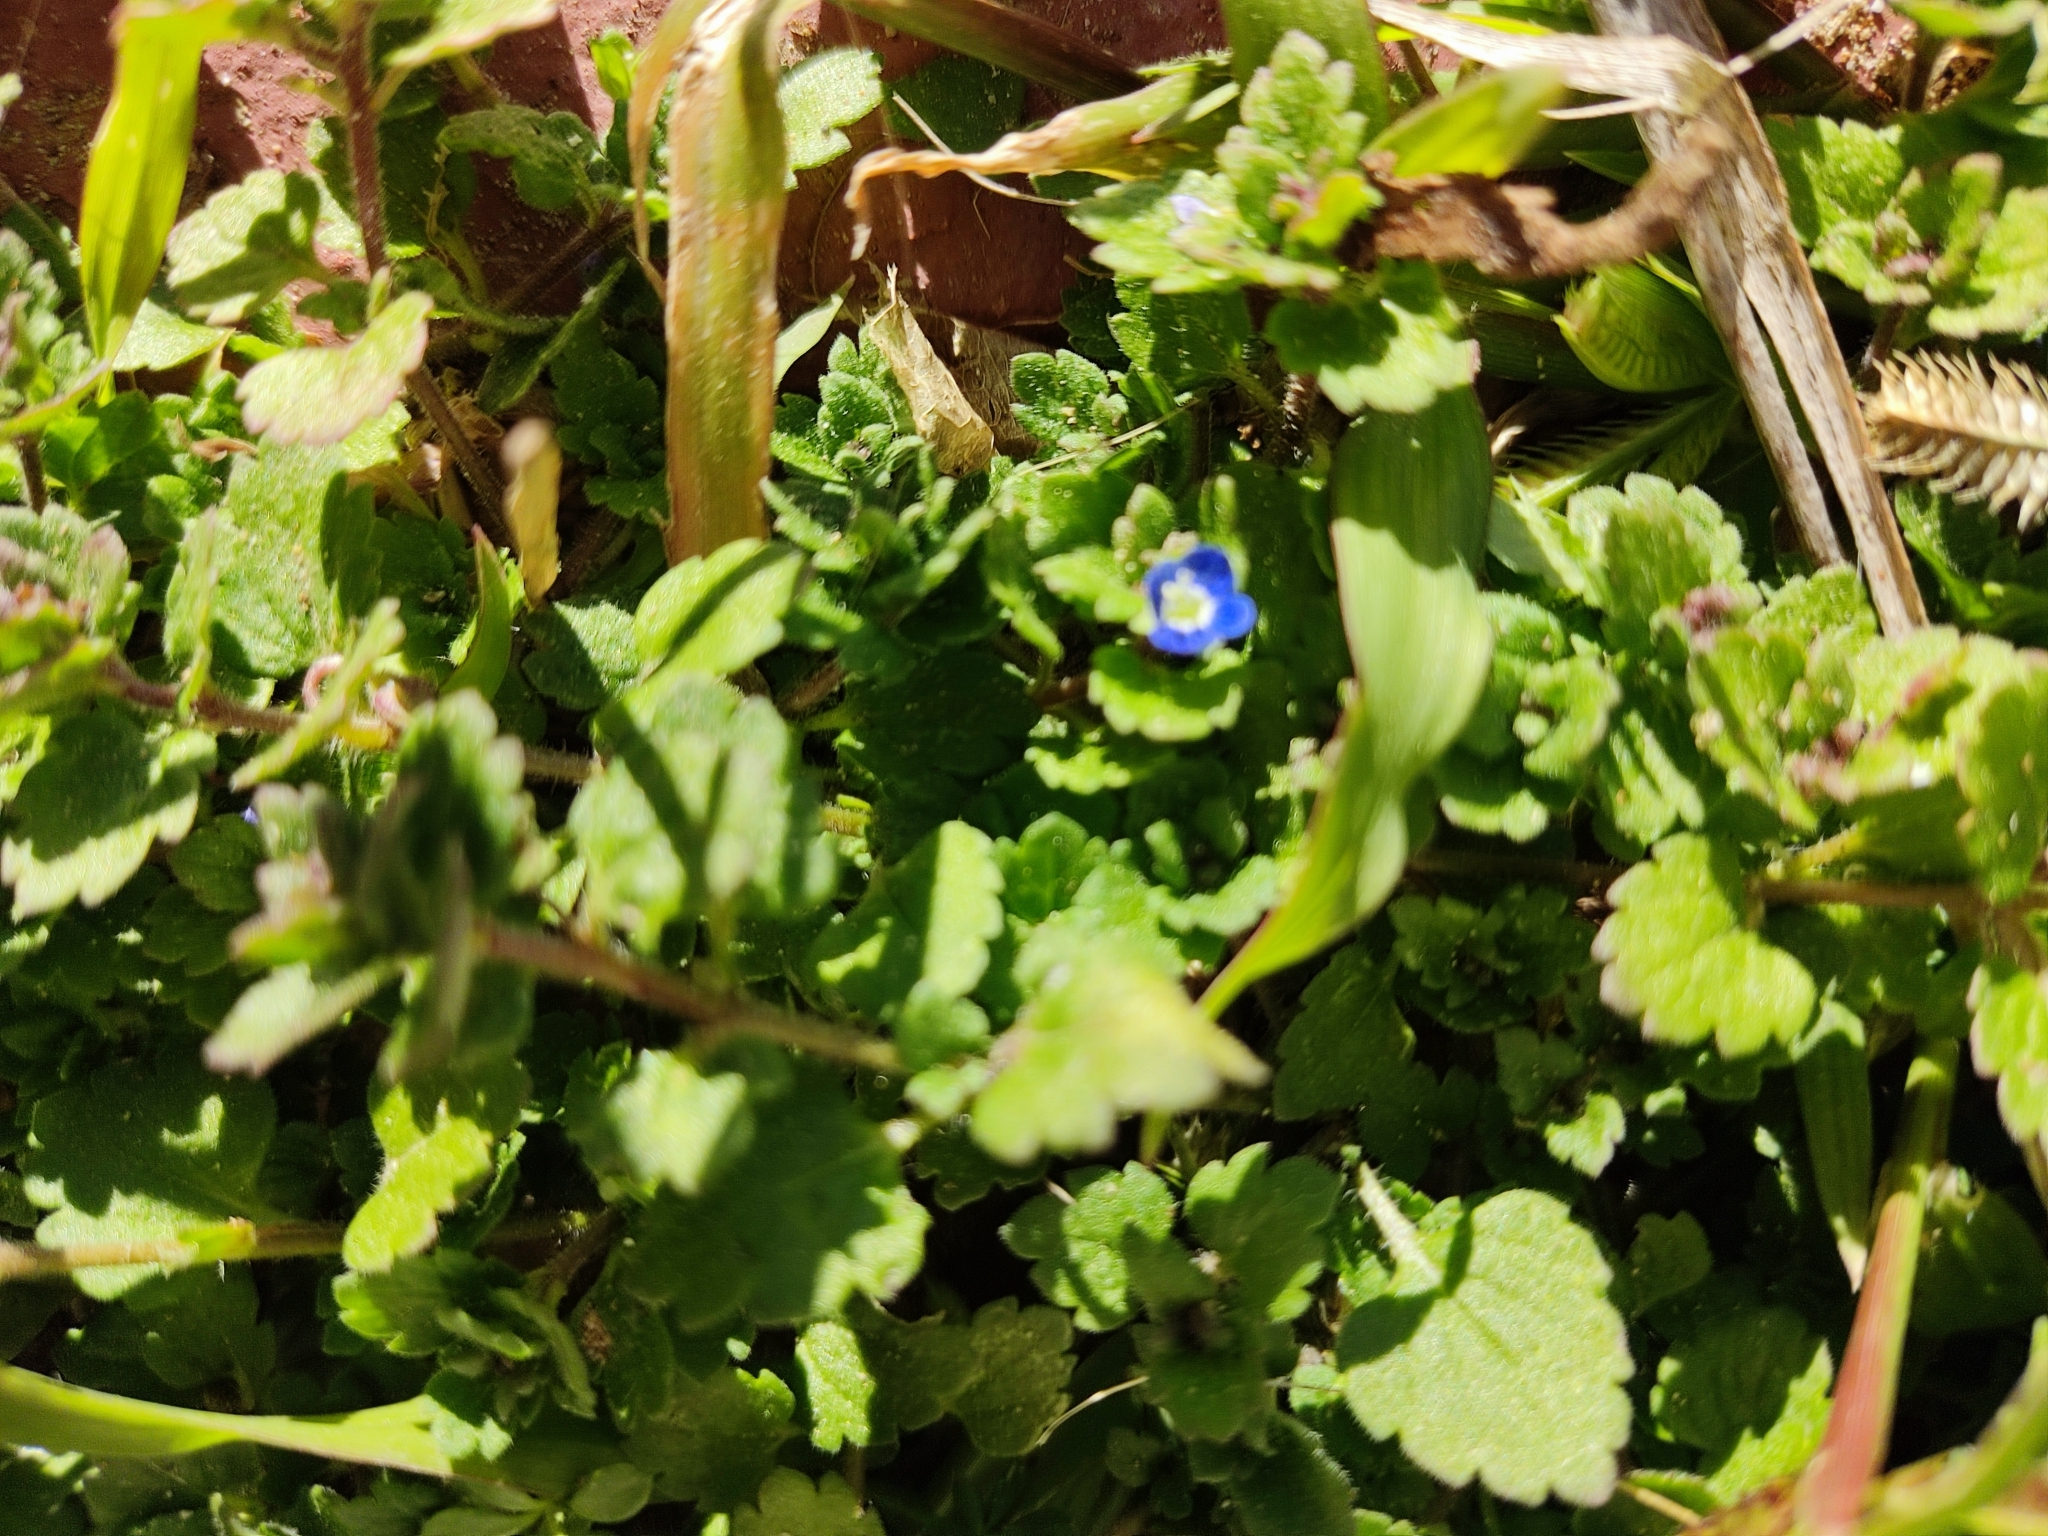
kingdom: Plantae
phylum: Tracheophyta
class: Magnoliopsida
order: Lamiales
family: Plantaginaceae
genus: Veronica
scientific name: Veronica polita
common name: Grey field-speedwell
